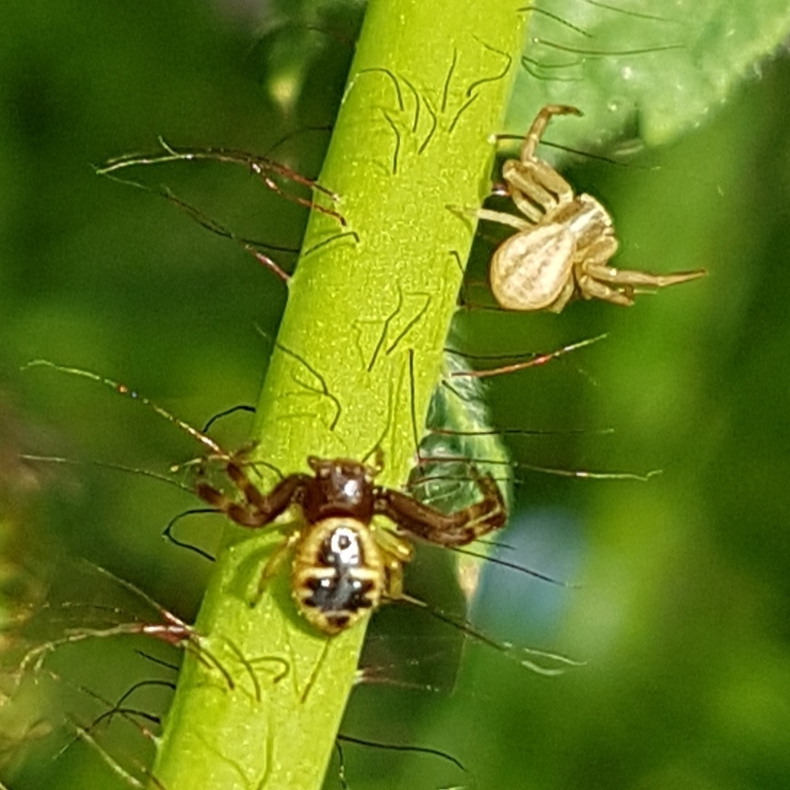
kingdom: Animalia
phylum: Arthropoda
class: Arachnida
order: Araneae
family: Thomisidae
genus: Runcinia
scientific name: Runcinia grammica
